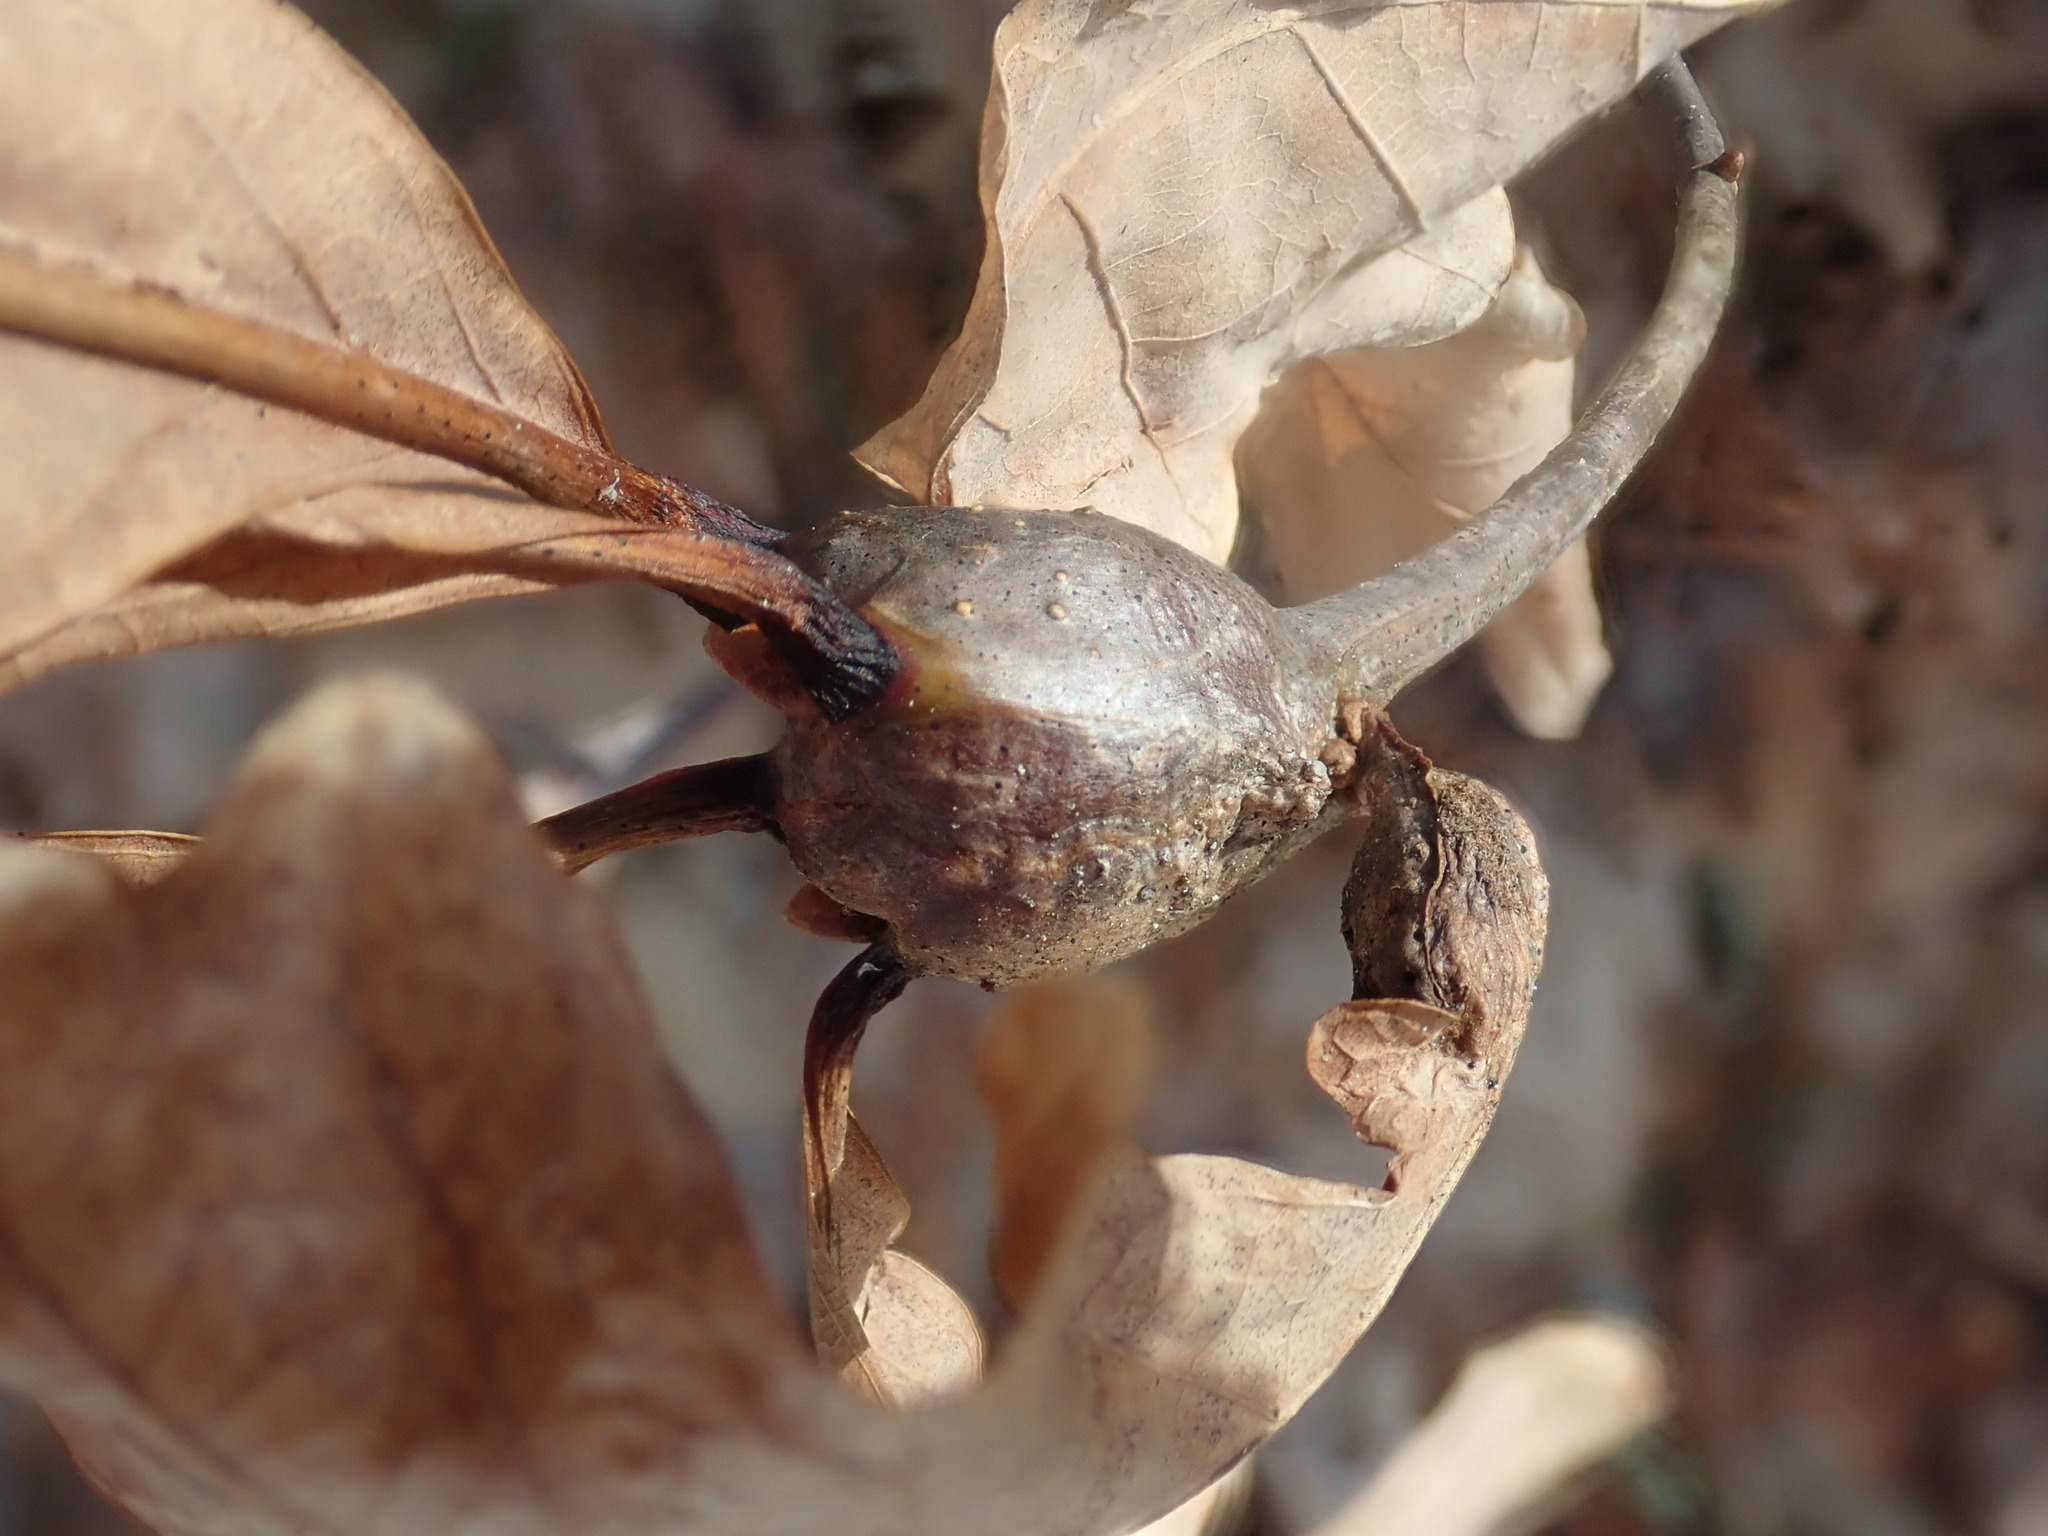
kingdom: Animalia
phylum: Arthropoda
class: Insecta
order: Hymenoptera
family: Cynipidae
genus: Callirhytis
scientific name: Callirhytis clavula
